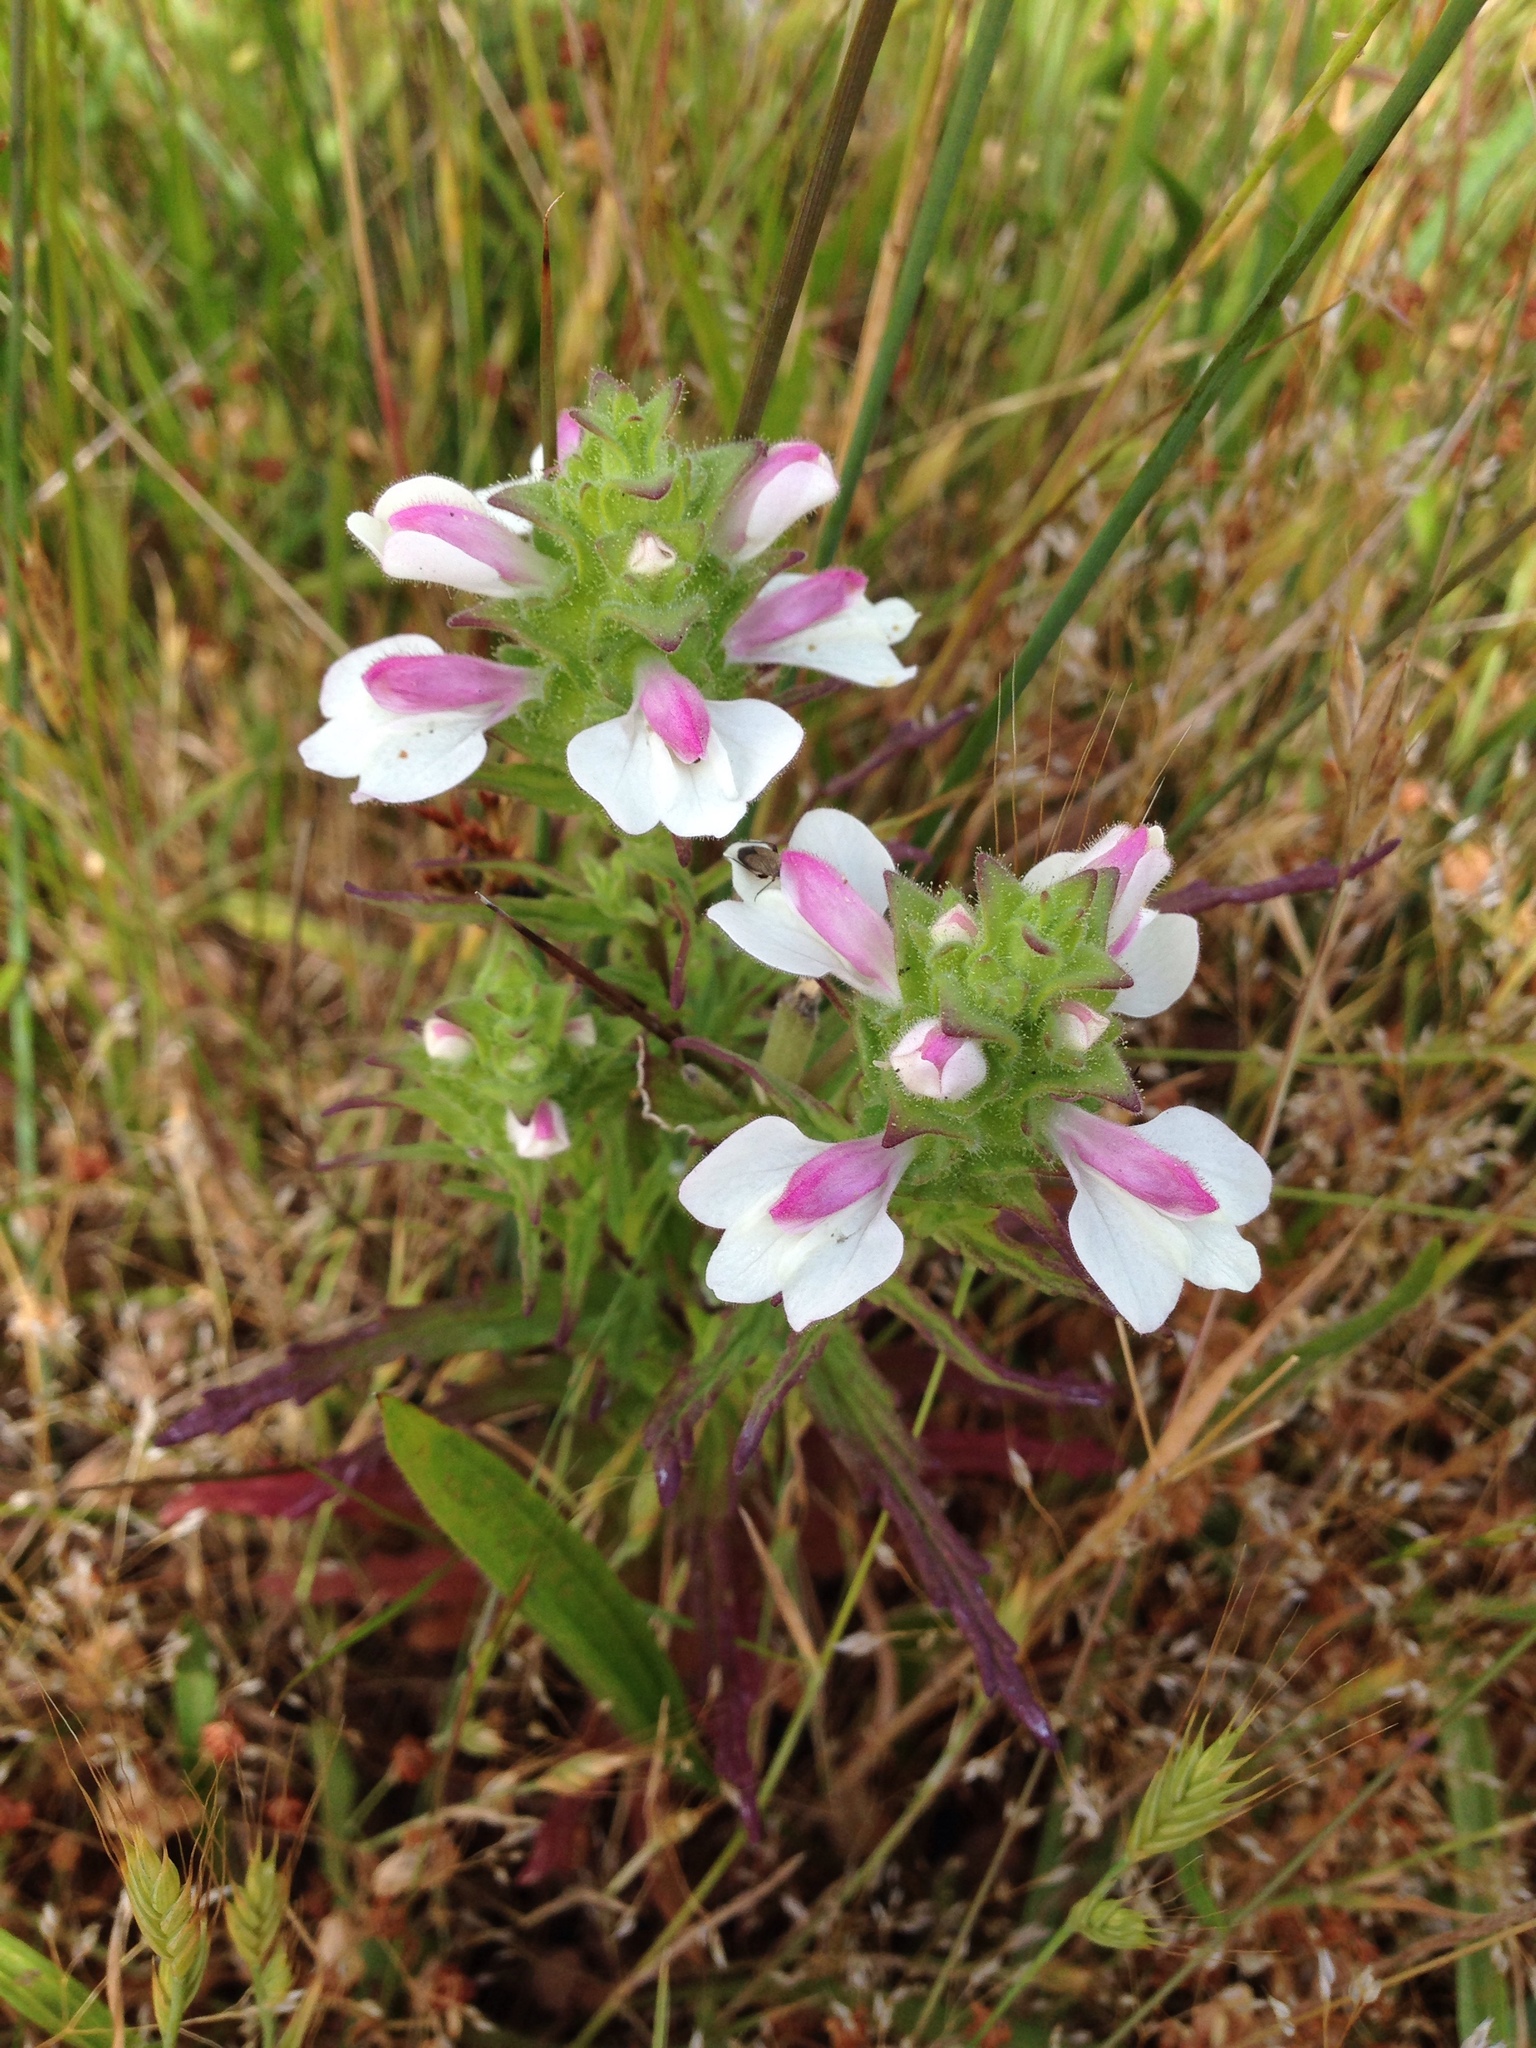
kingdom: Plantae
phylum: Tracheophyta
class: Magnoliopsida
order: Lamiales
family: Orobanchaceae
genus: Bellardia
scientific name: Bellardia trixago
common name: Mediterranean lineseed
